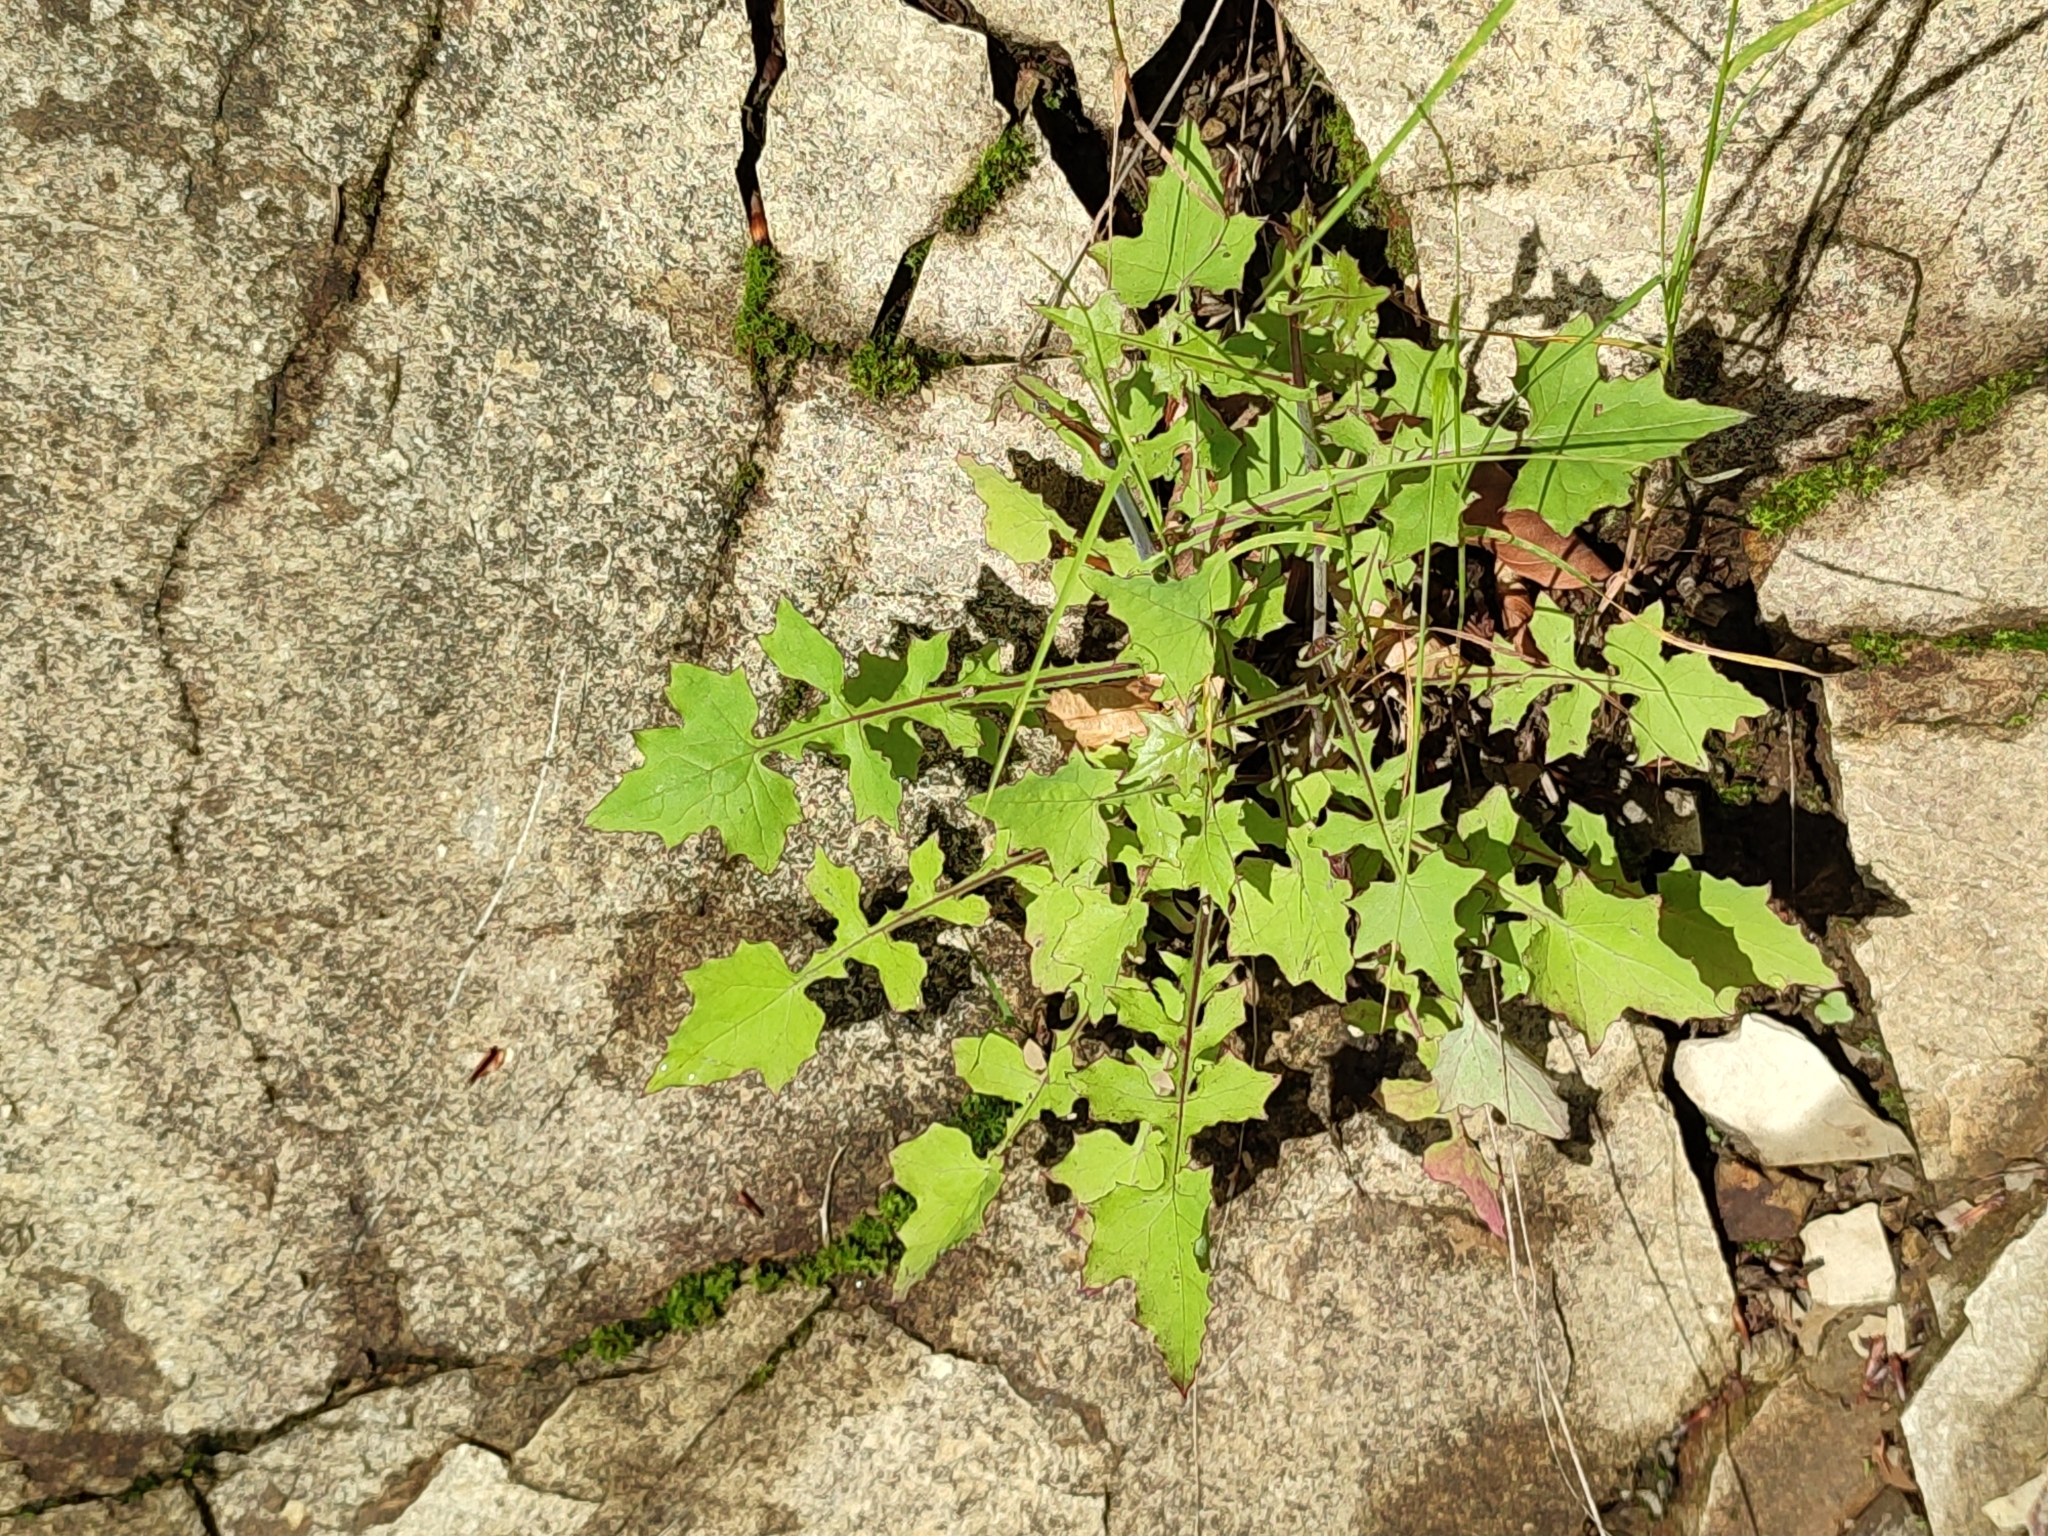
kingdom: Plantae
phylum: Tracheophyta
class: Magnoliopsida
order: Asterales
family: Asteraceae
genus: Mycelis
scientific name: Mycelis muralis
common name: Wall lettuce
